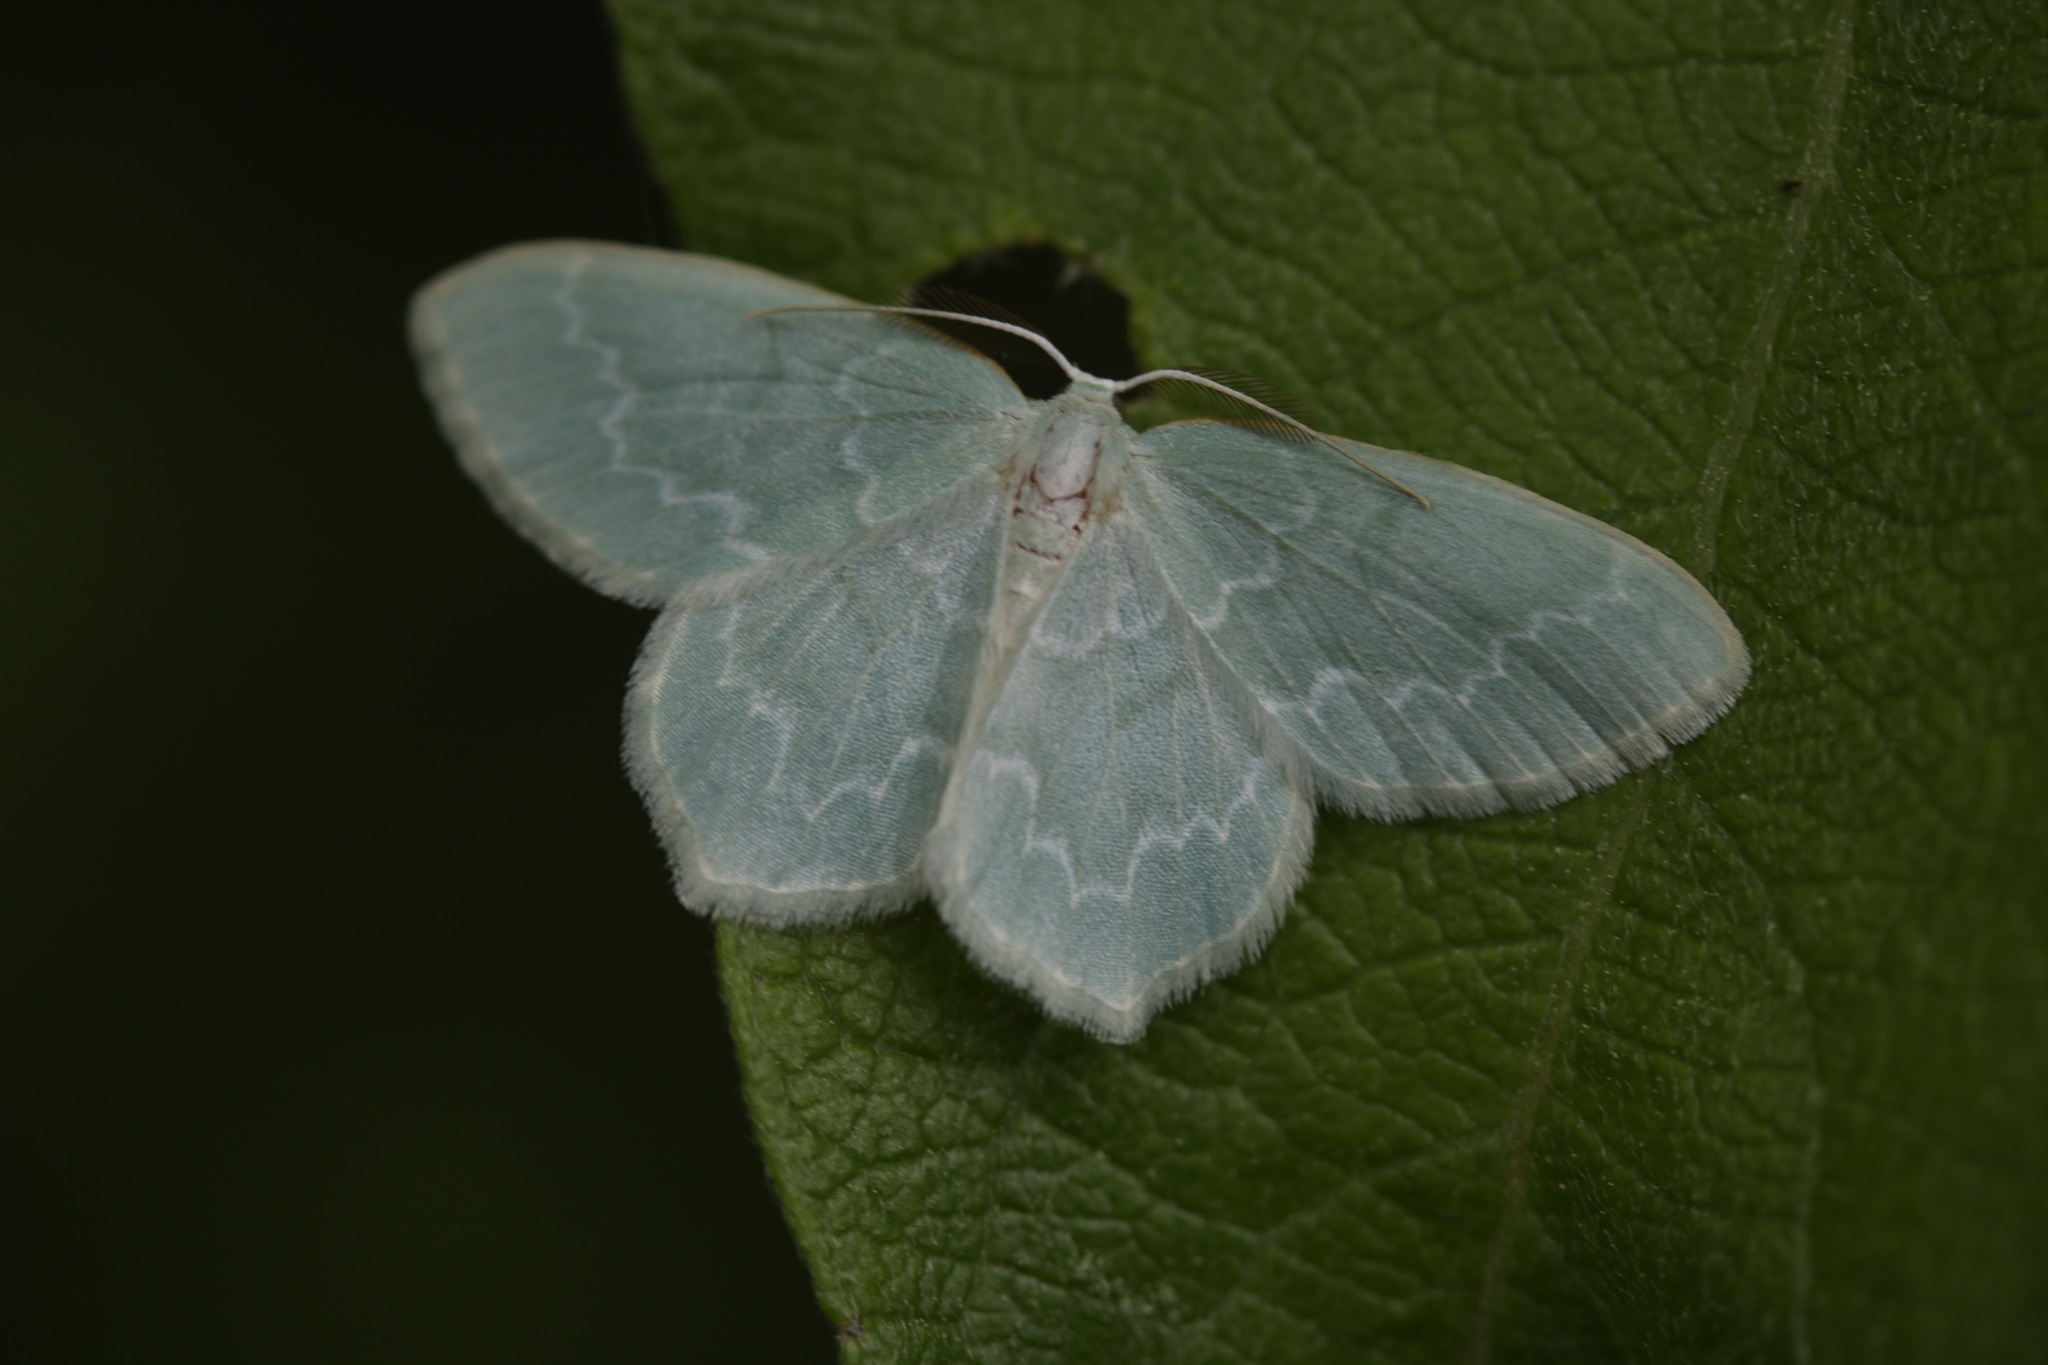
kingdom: Animalia
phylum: Arthropoda
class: Insecta
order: Lepidoptera
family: Geometridae
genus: Jodis
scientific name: Jodis putata
